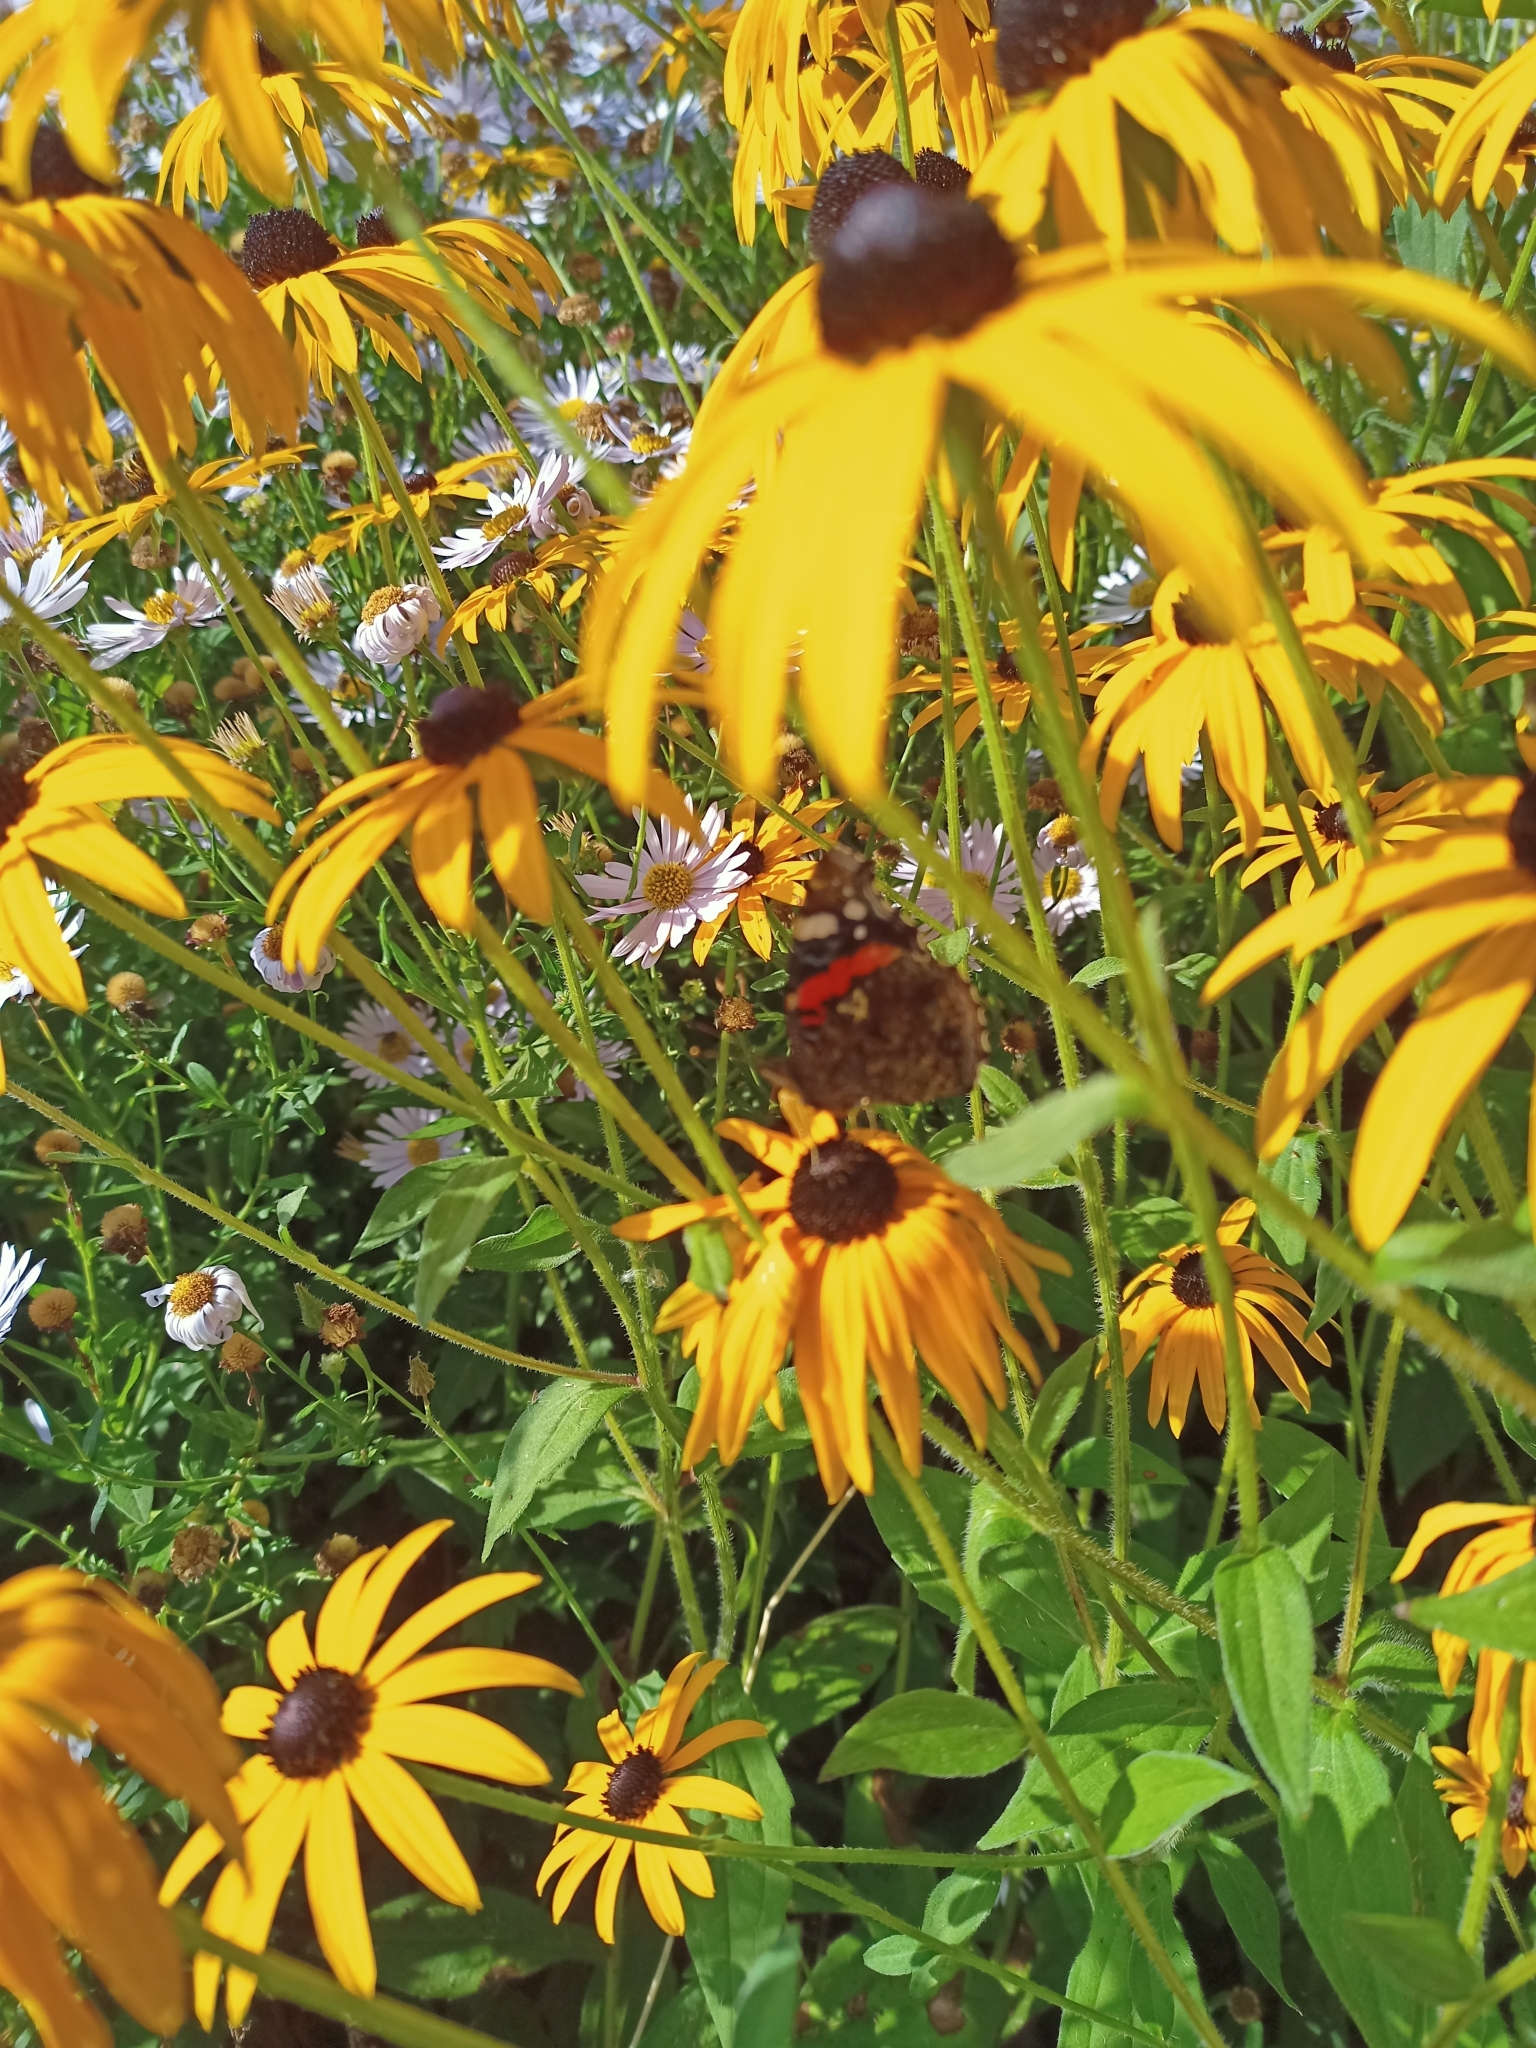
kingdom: Animalia
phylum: Arthropoda
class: Insecta
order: Lepidoptera
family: Nymphalidae
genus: Vanessa
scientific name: Vanessa atalanta
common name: Red admiral
